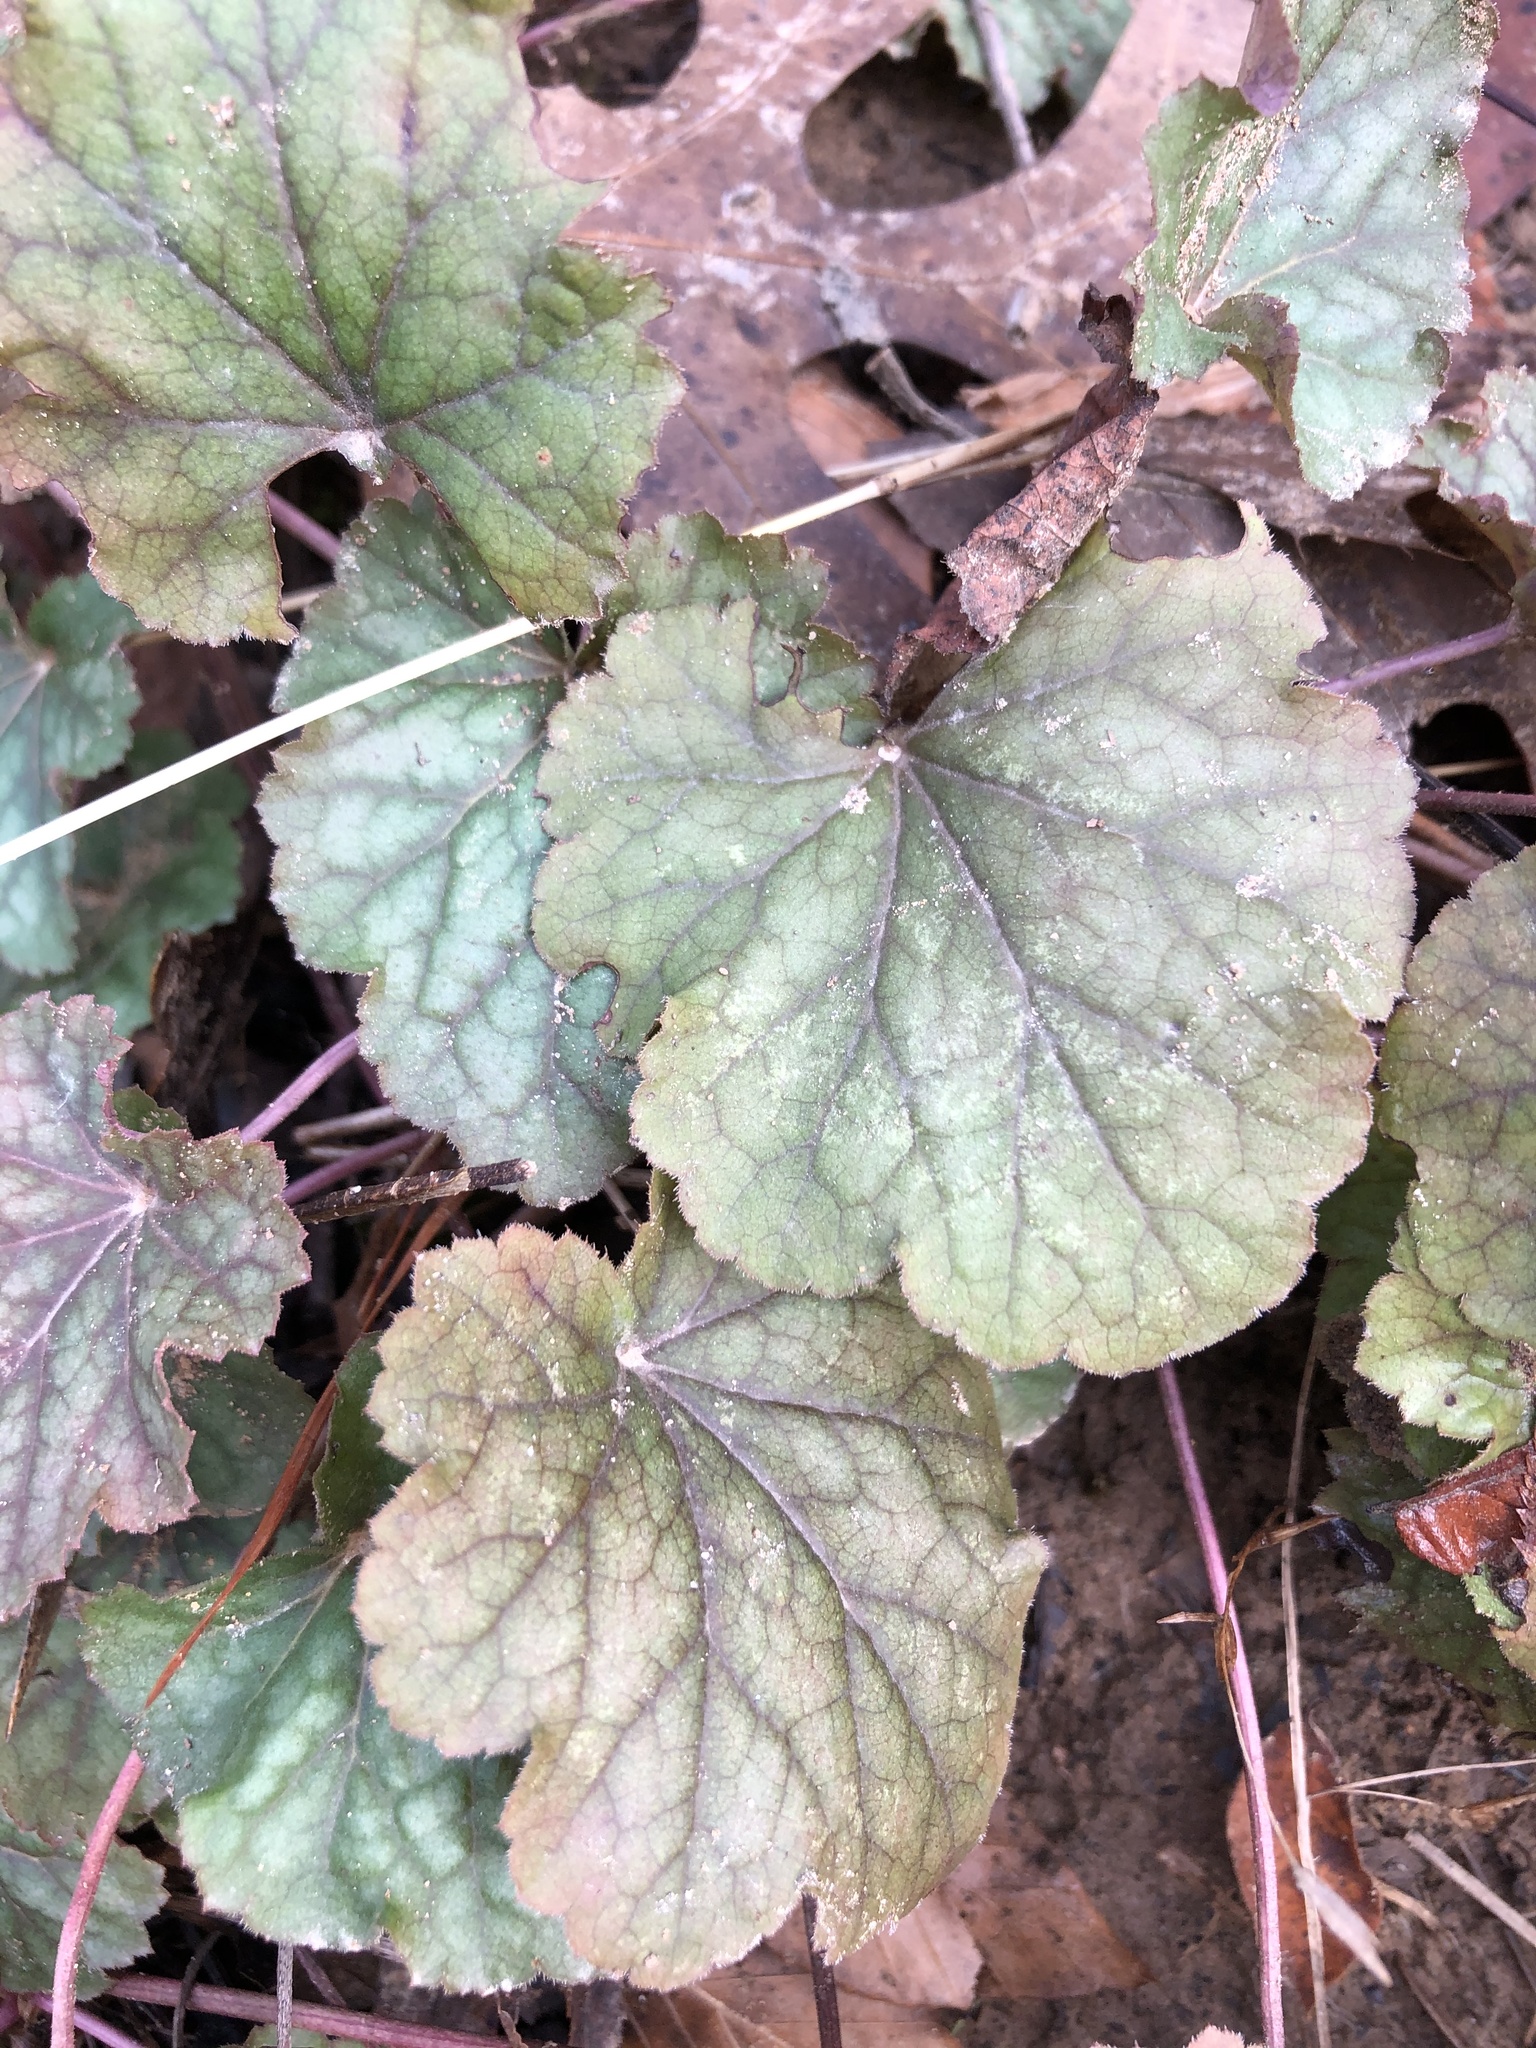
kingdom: Plantae
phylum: Tracheophyta
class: Magnoliopsida
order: Saxifragales
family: Saxifragaceae
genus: Heuchera
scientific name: Heuchera americana
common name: Alumroot
